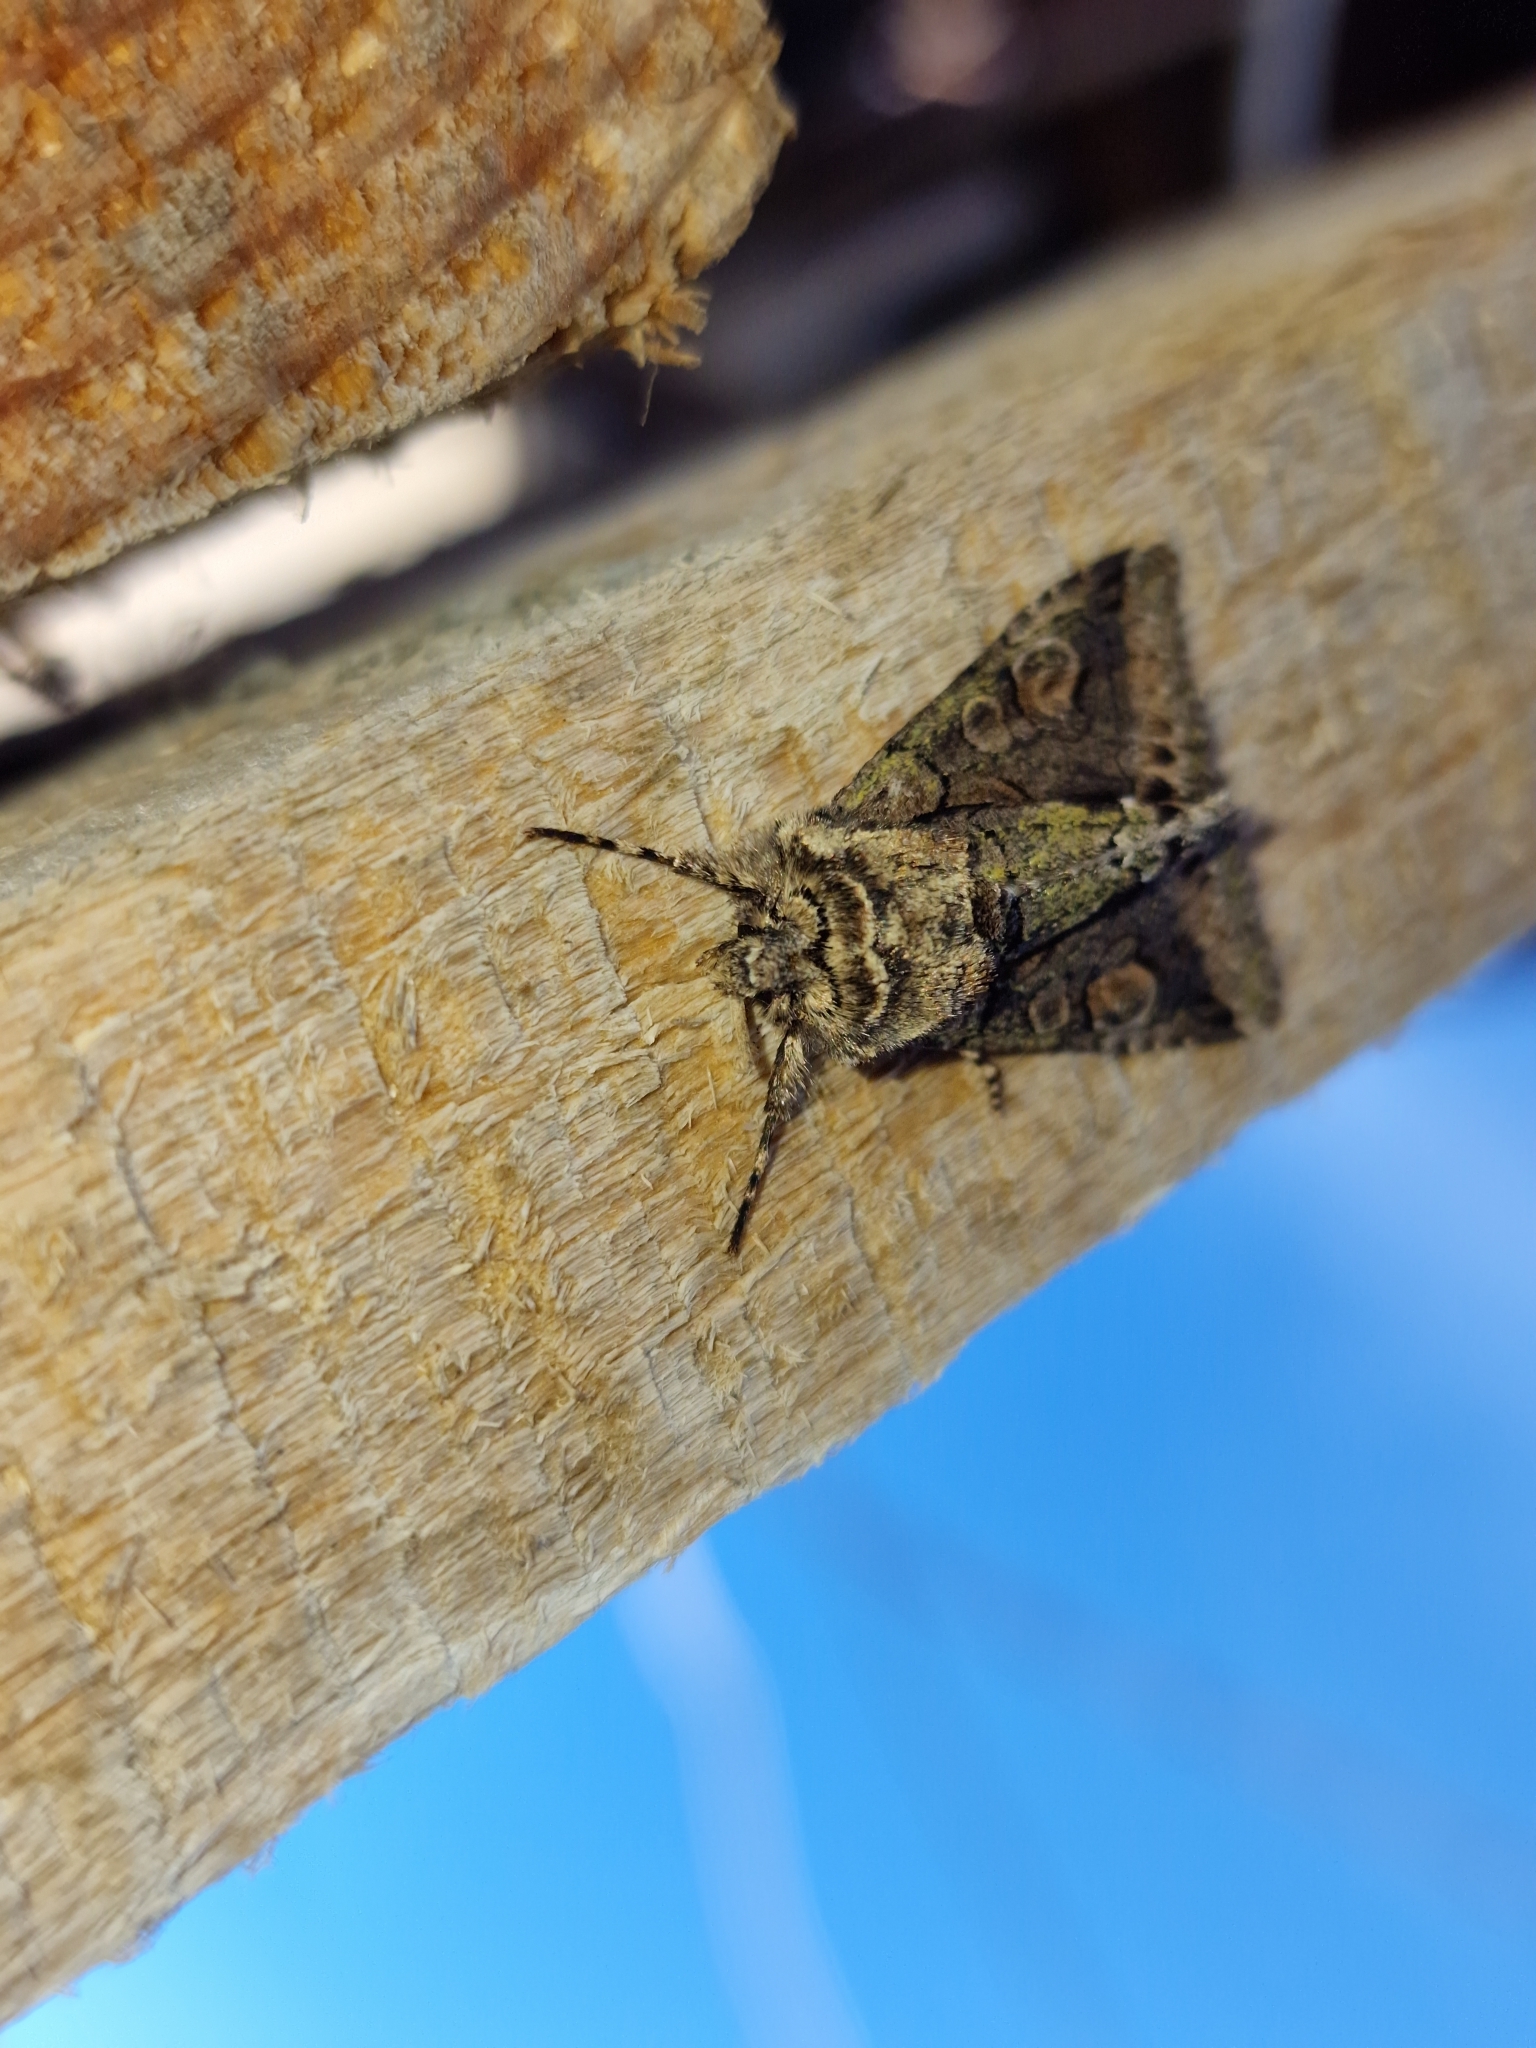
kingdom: Animalia
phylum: Arthropoda
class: Insecta
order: Lepidoptera
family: Noctuidae
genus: Allophyes
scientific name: Allophyes oxyacanthae
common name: Green-brindled crescent
